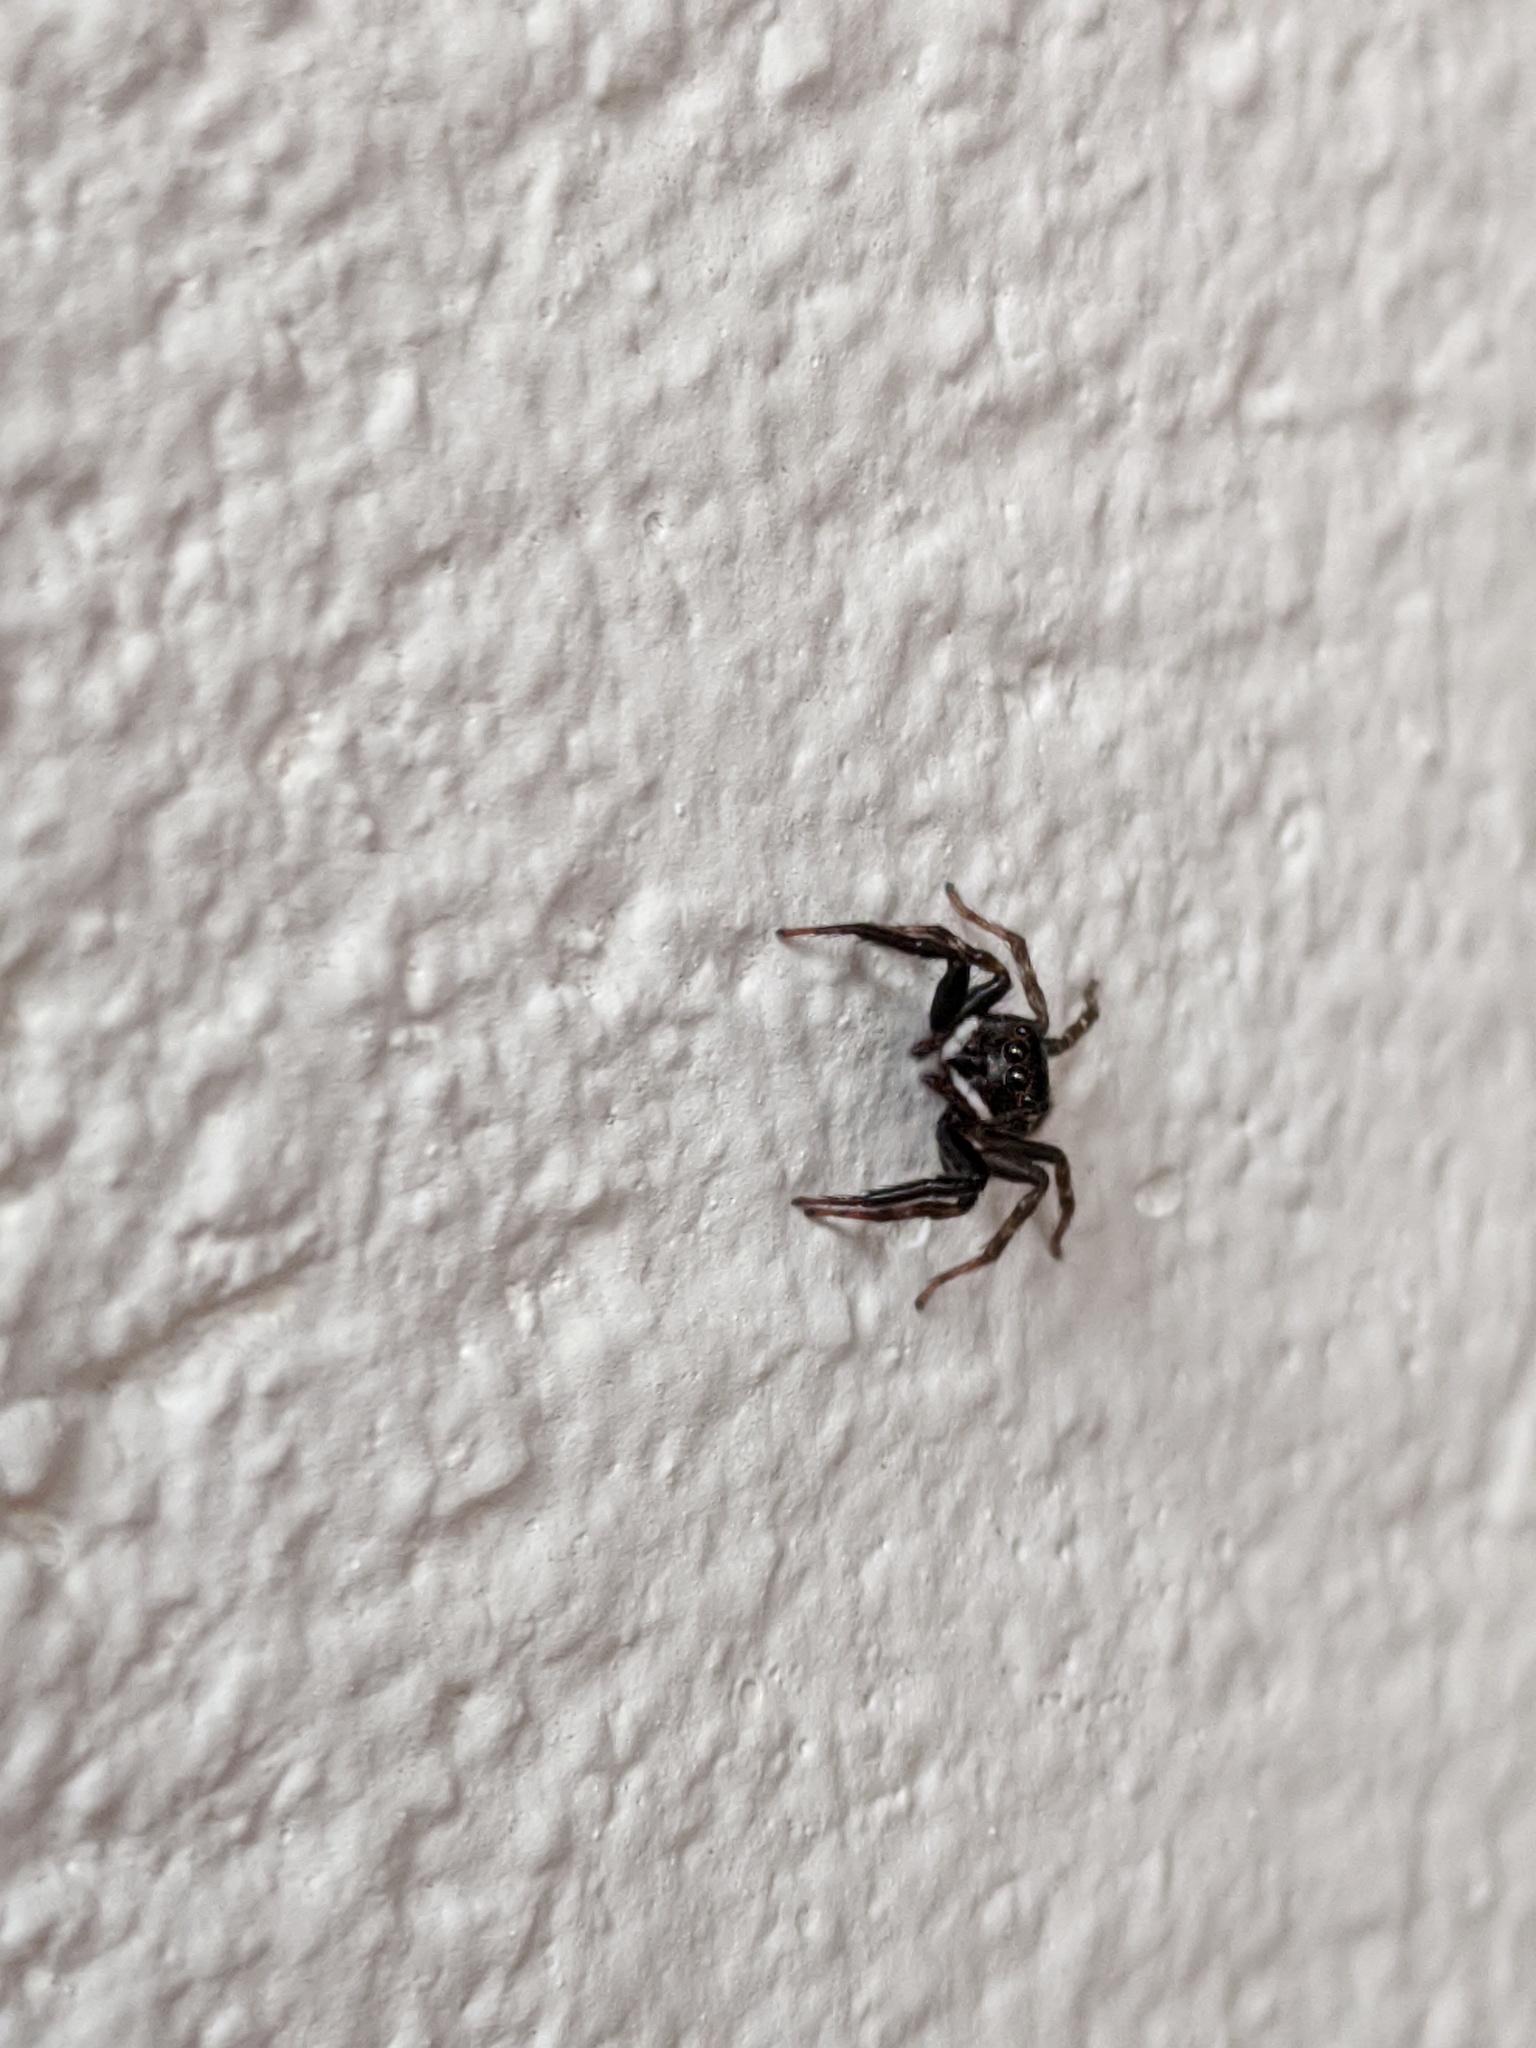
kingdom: Animalia
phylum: Arthropoda
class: Arachnida
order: Araneae
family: Salticidae
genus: Hasarius
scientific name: Hasarius adansoni
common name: Jumping spider
